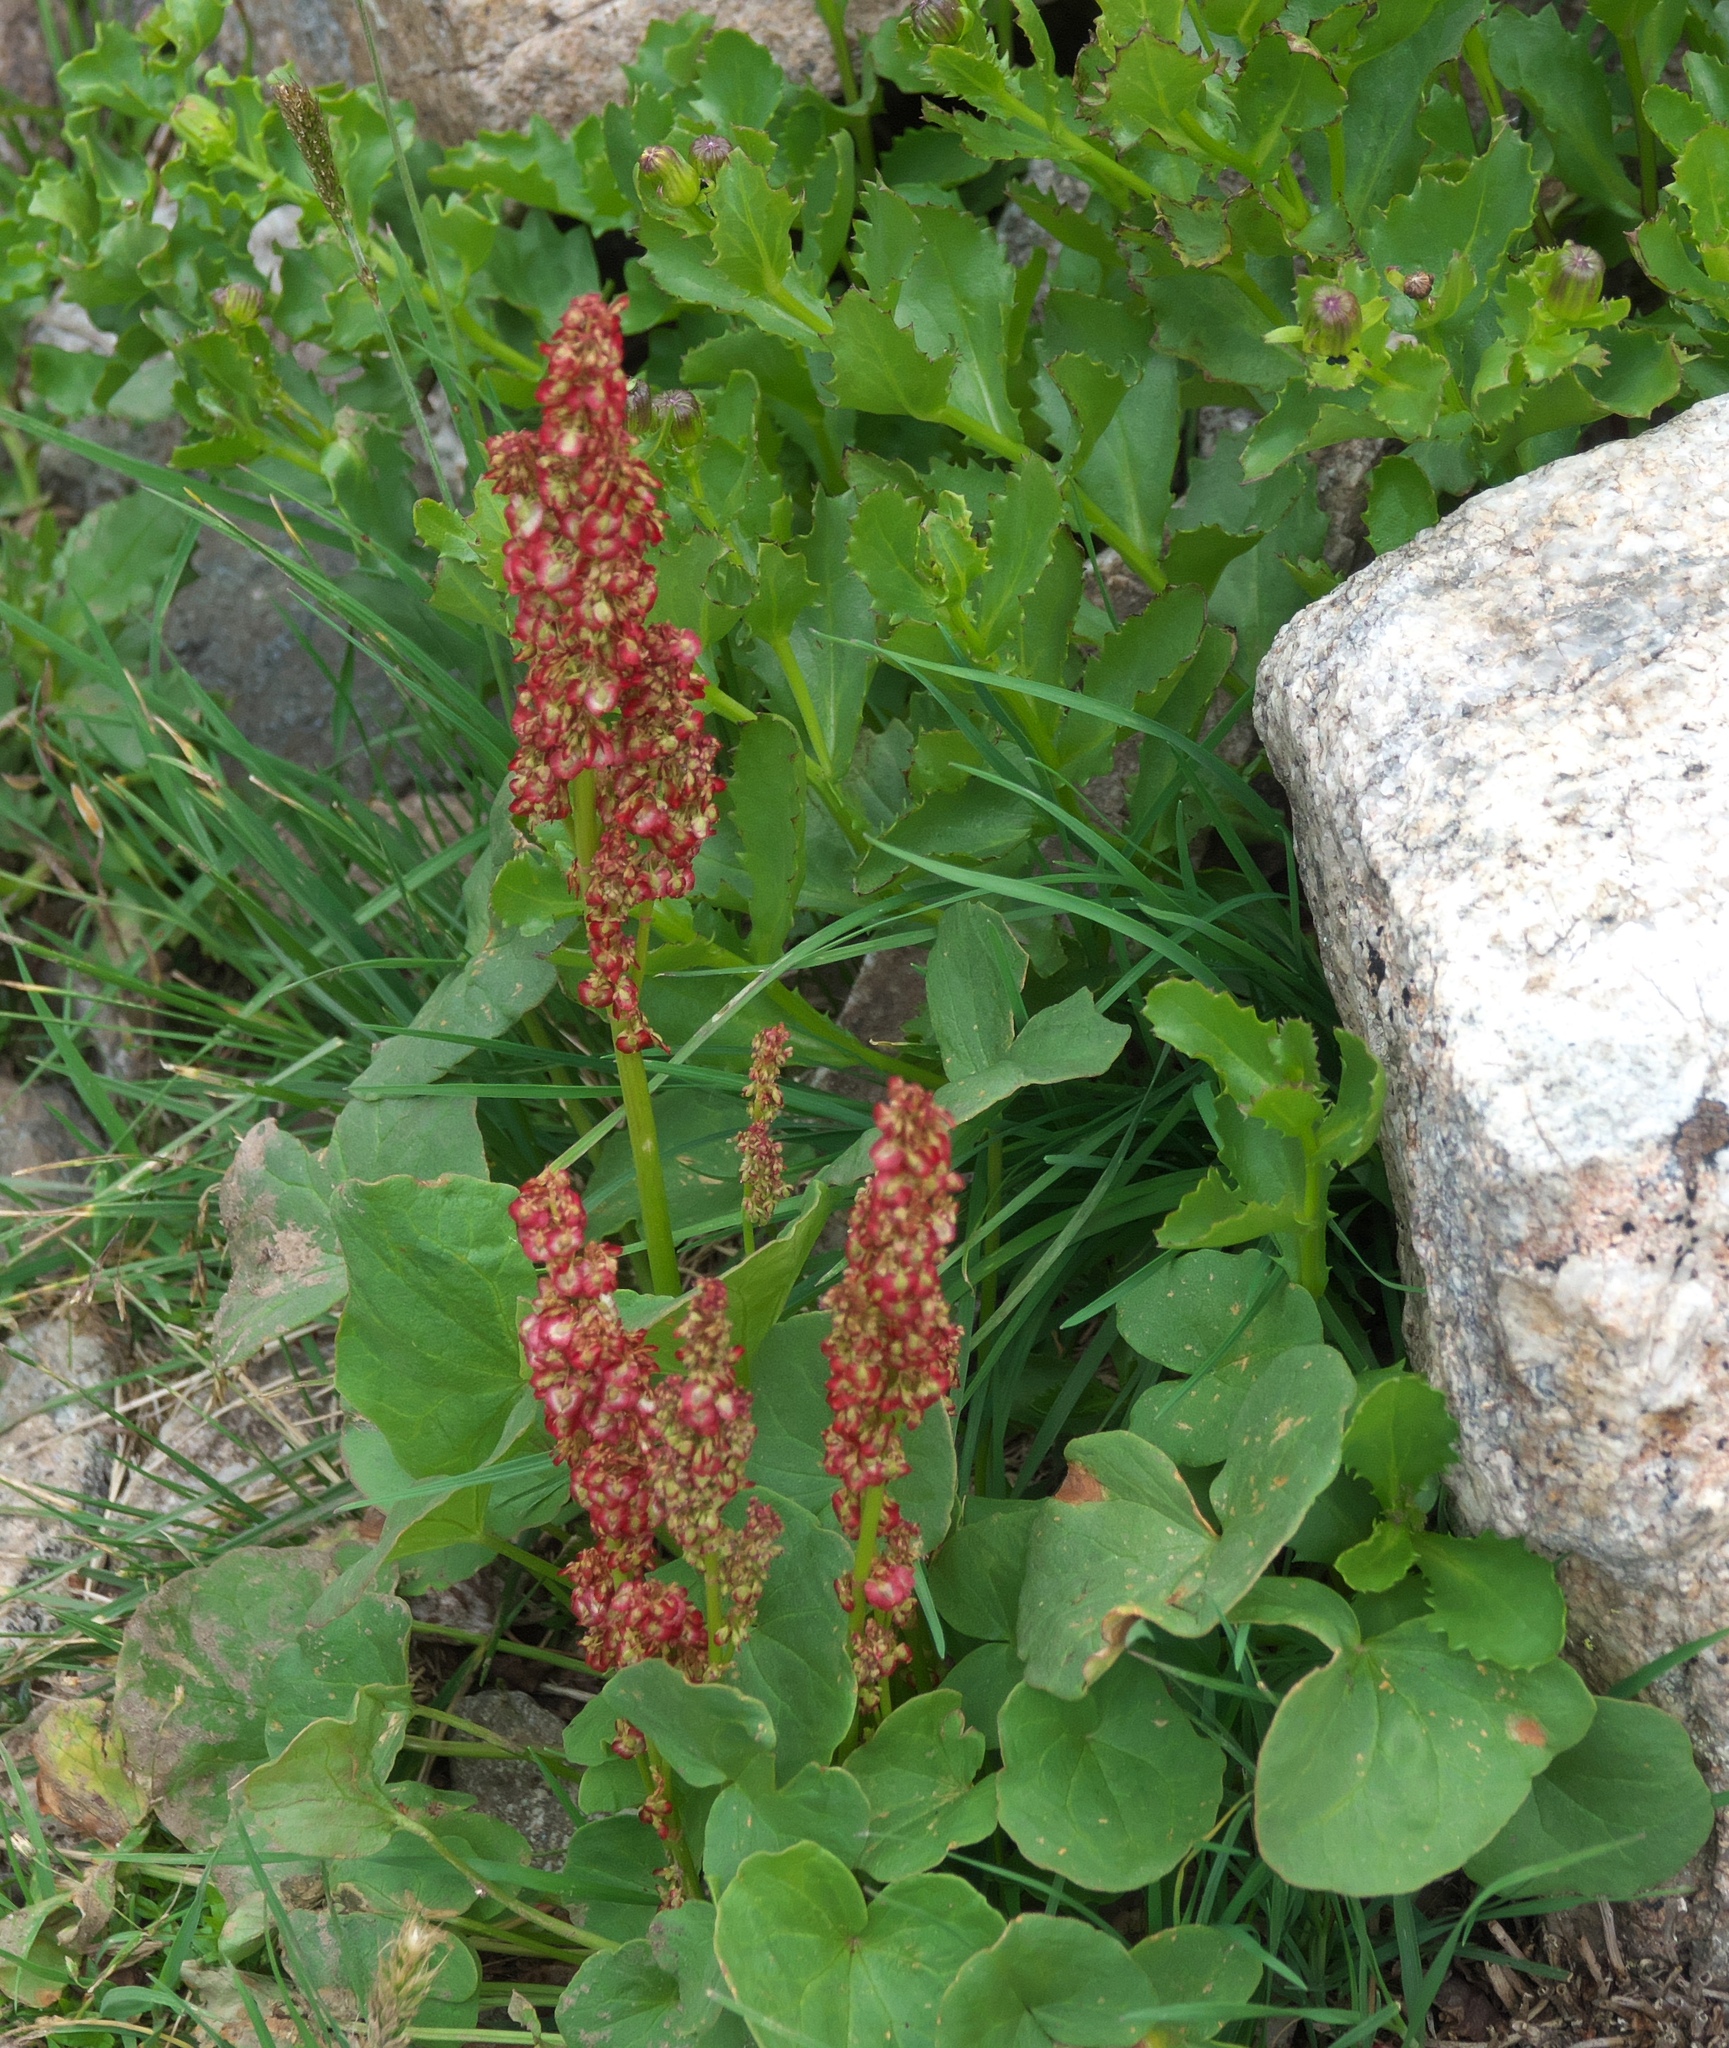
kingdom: Plantae
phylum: Tracheophyta
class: Magnoliopsida
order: Caryophyllales
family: Polygonaceae
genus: Oxyria
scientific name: Oxyria digyna
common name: Alpine mountain-sorrel
